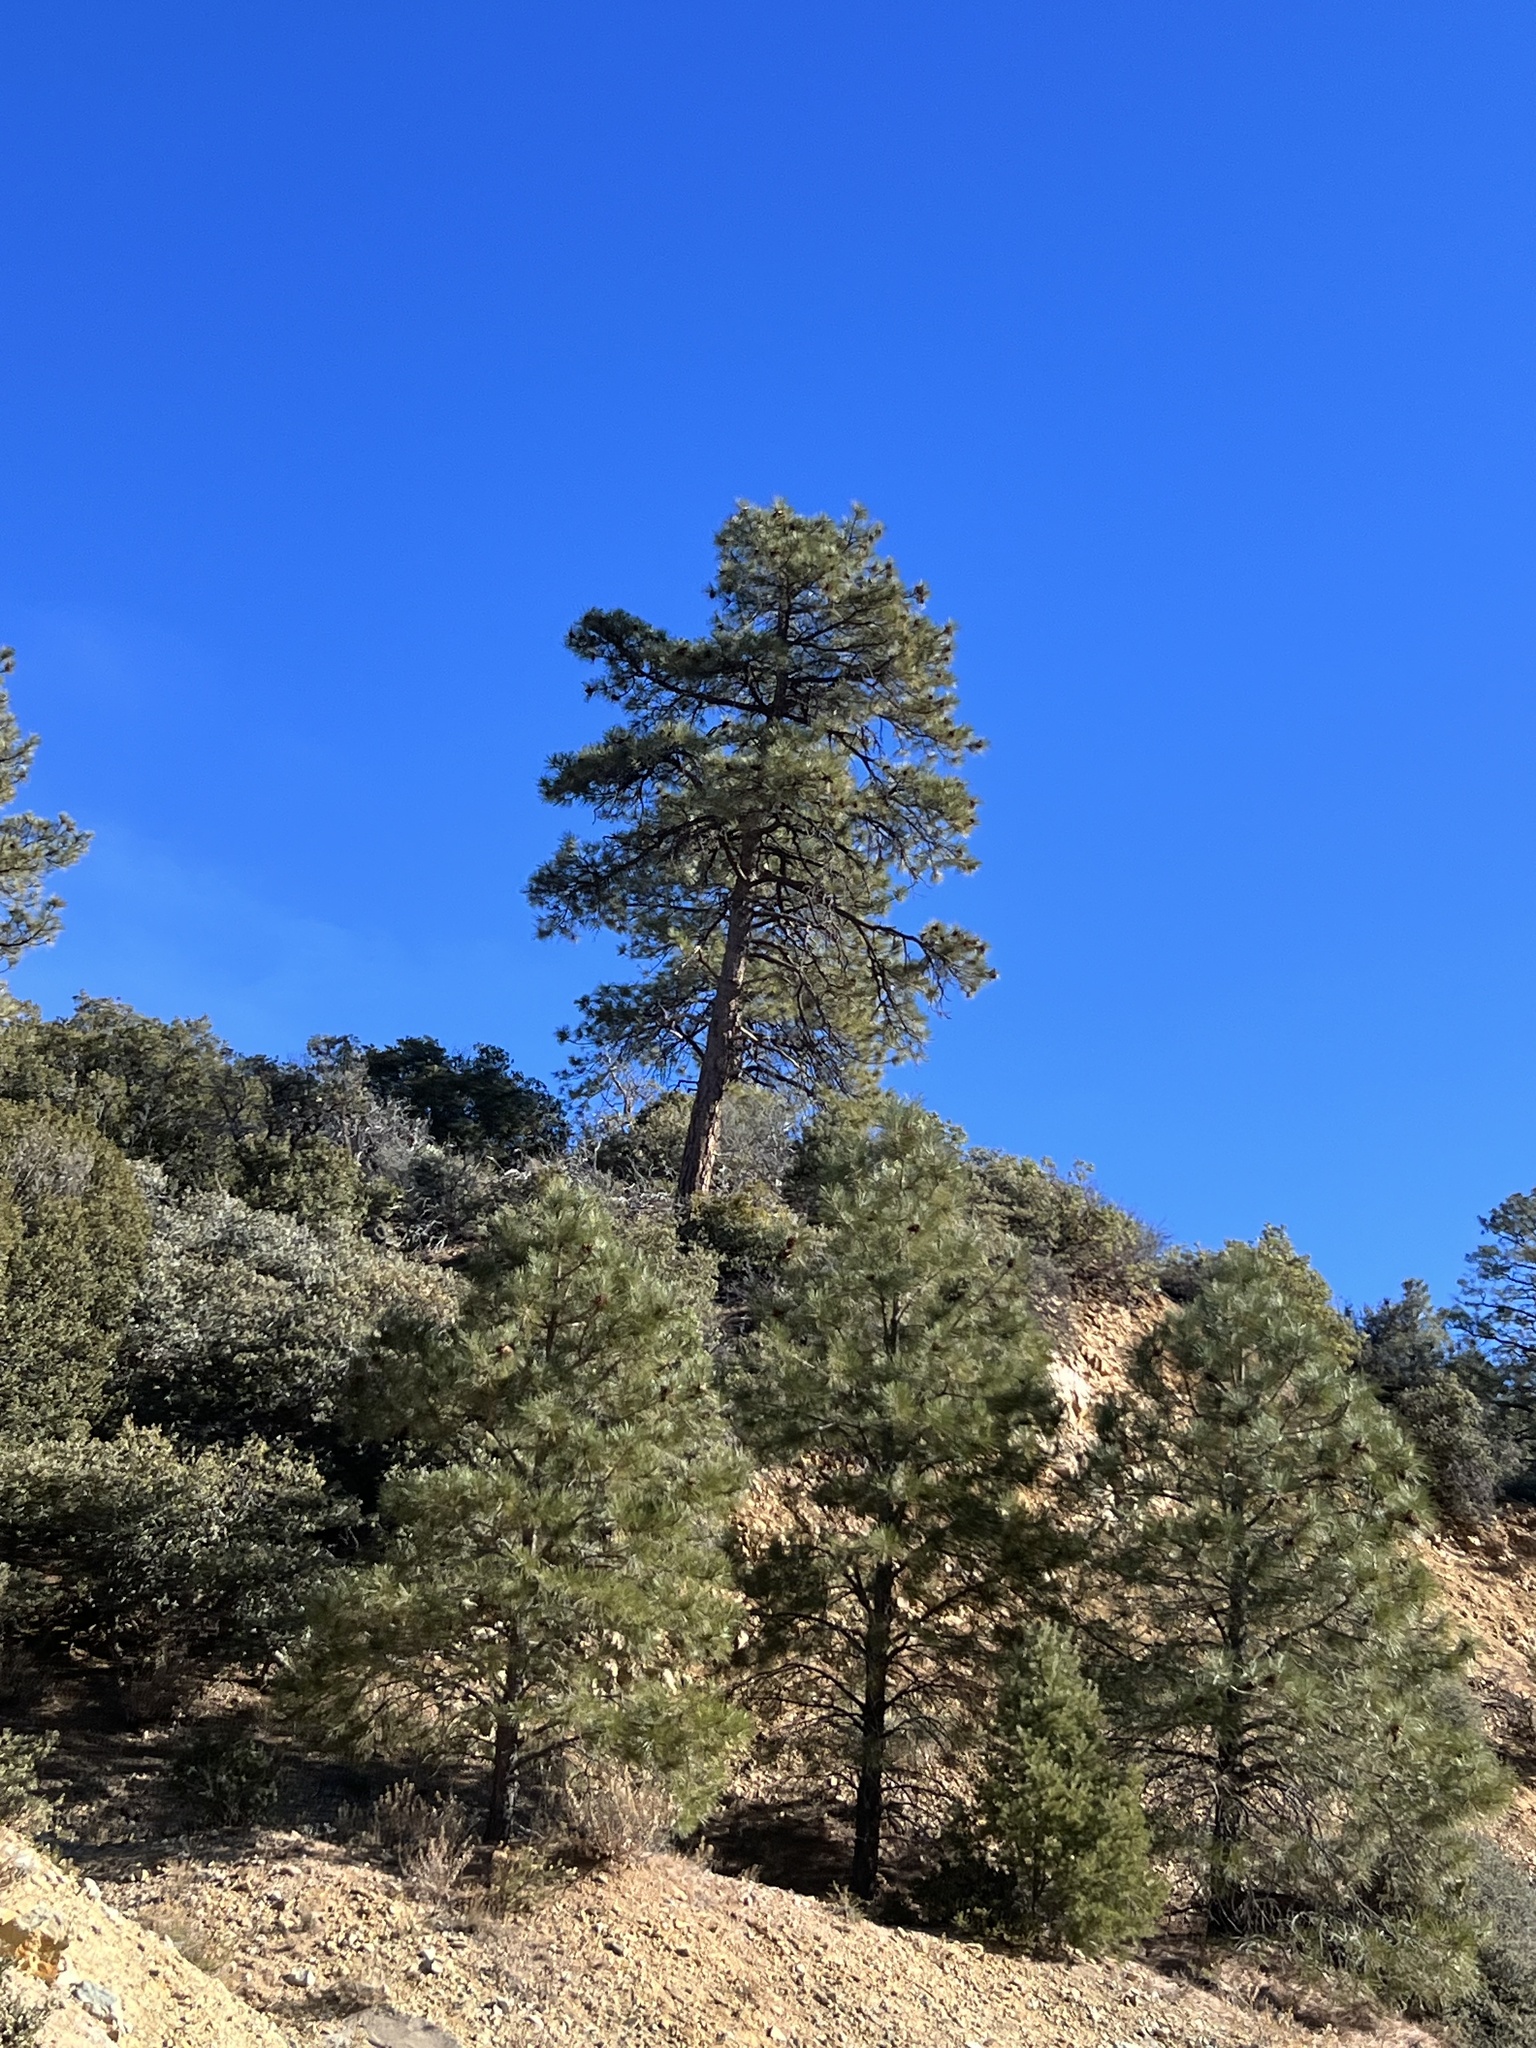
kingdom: Plantae
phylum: Tracheophyta
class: Pinopsida
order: Pinales
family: Pinaceae
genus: Pinus
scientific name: Pinus ponderosa
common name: Western yellow-pine
